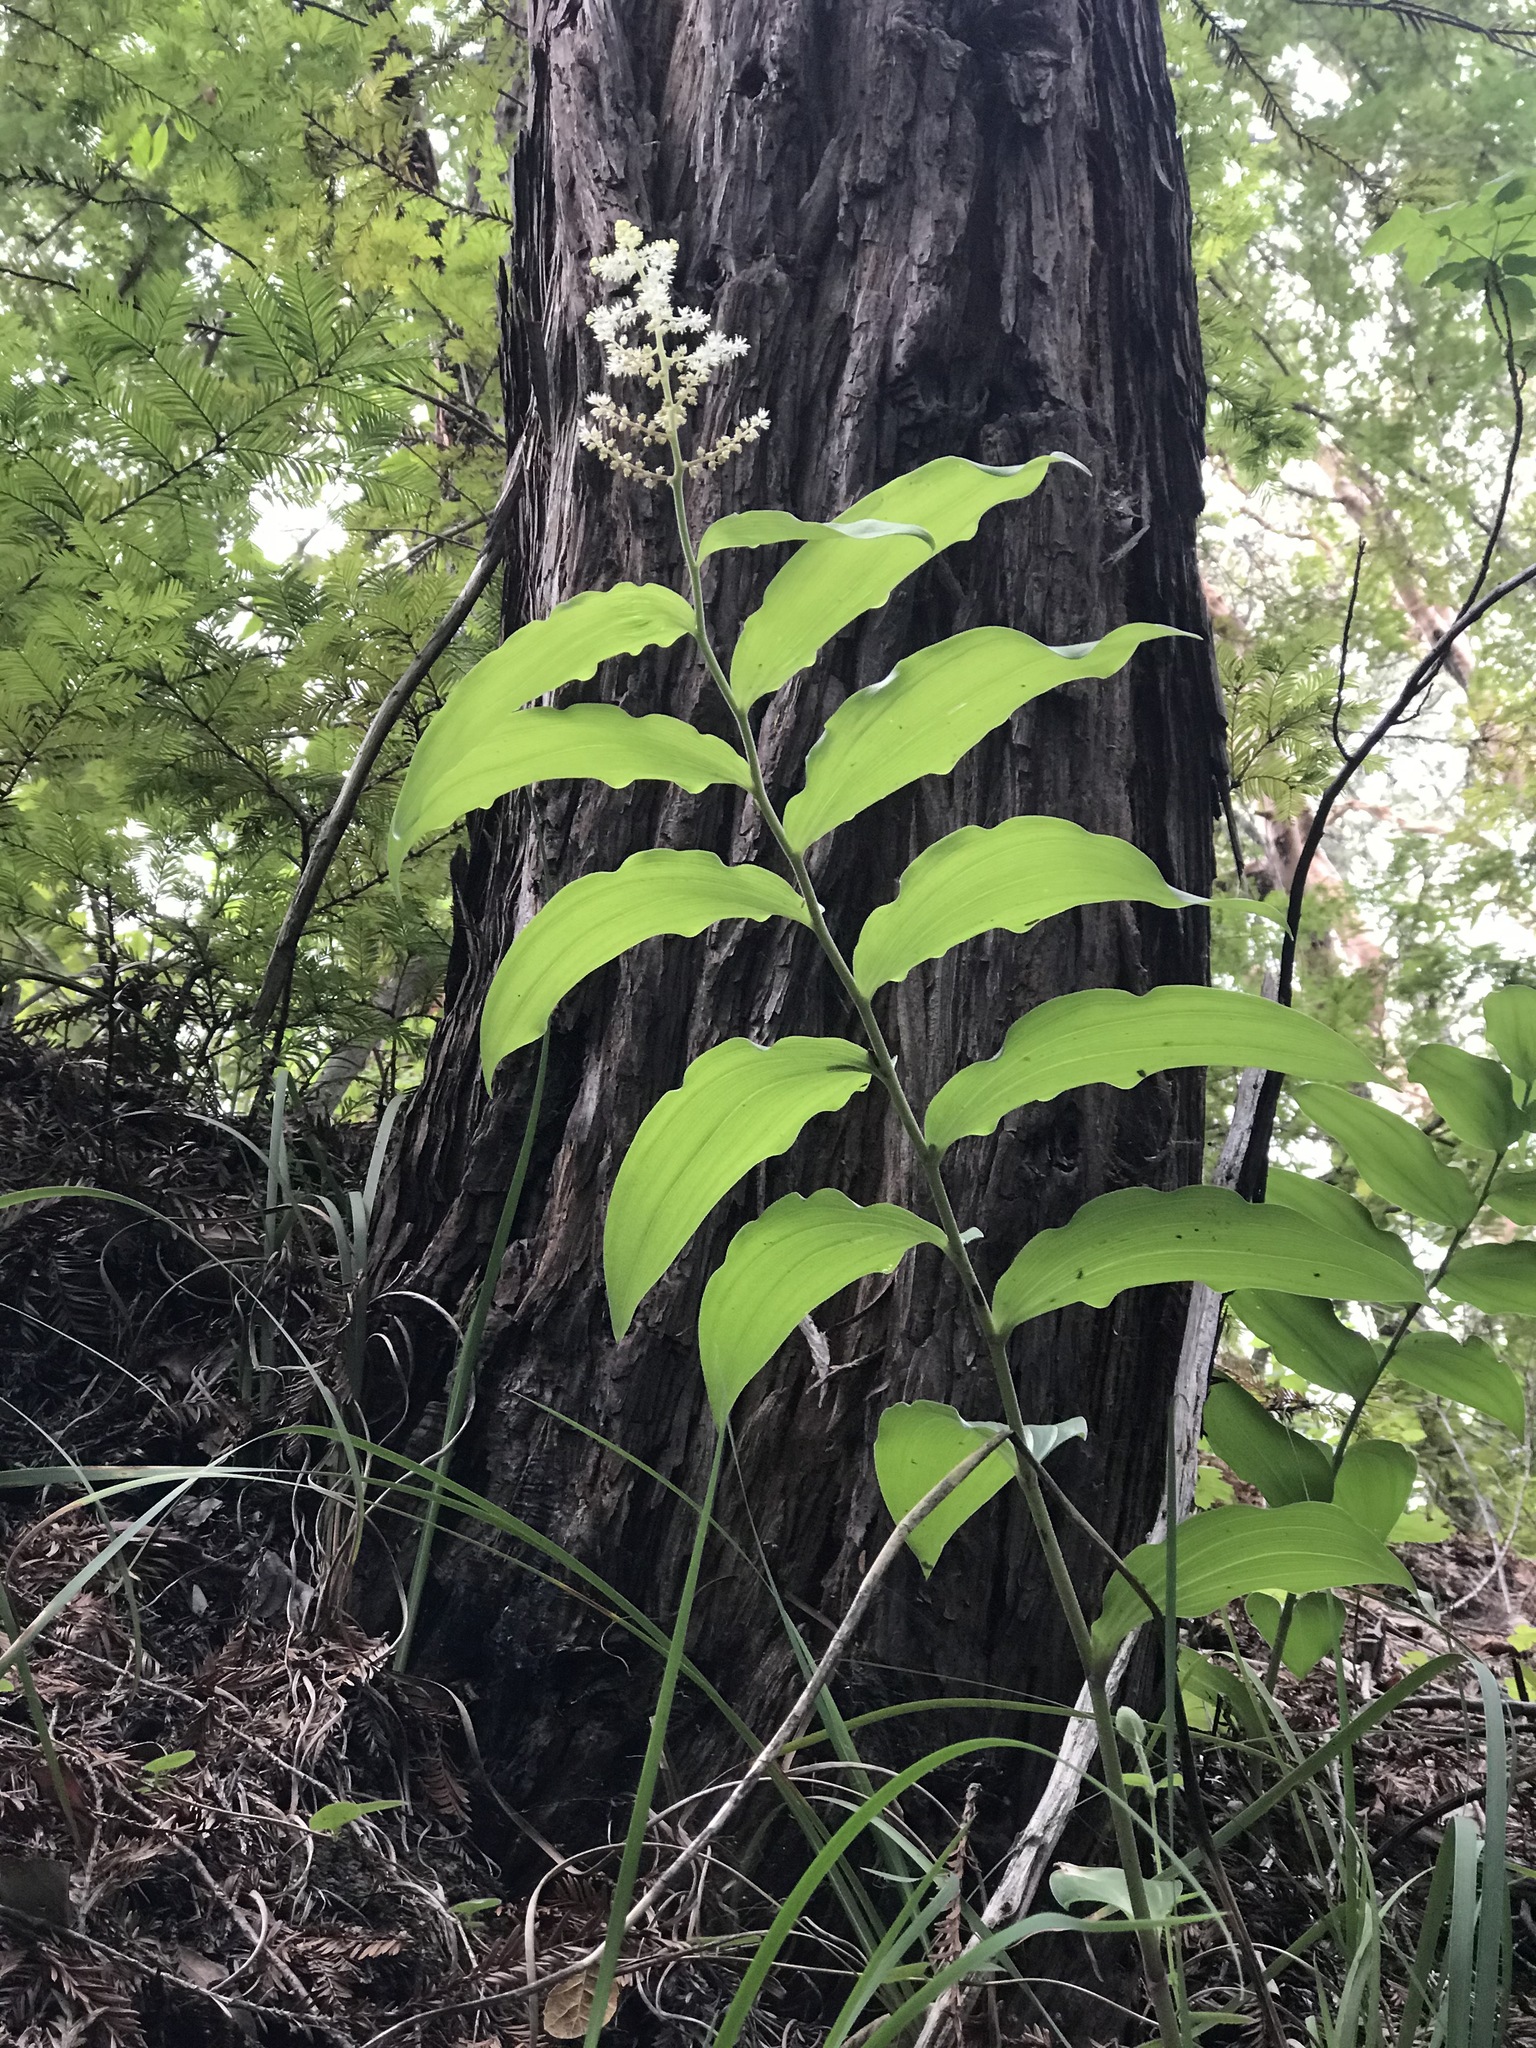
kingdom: Plantae
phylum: Tracheophyta
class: Liliopsida
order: Asparagales
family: Asparagaceae
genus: Maianthemum
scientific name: Maianthemum racemosum
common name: False spikenard
